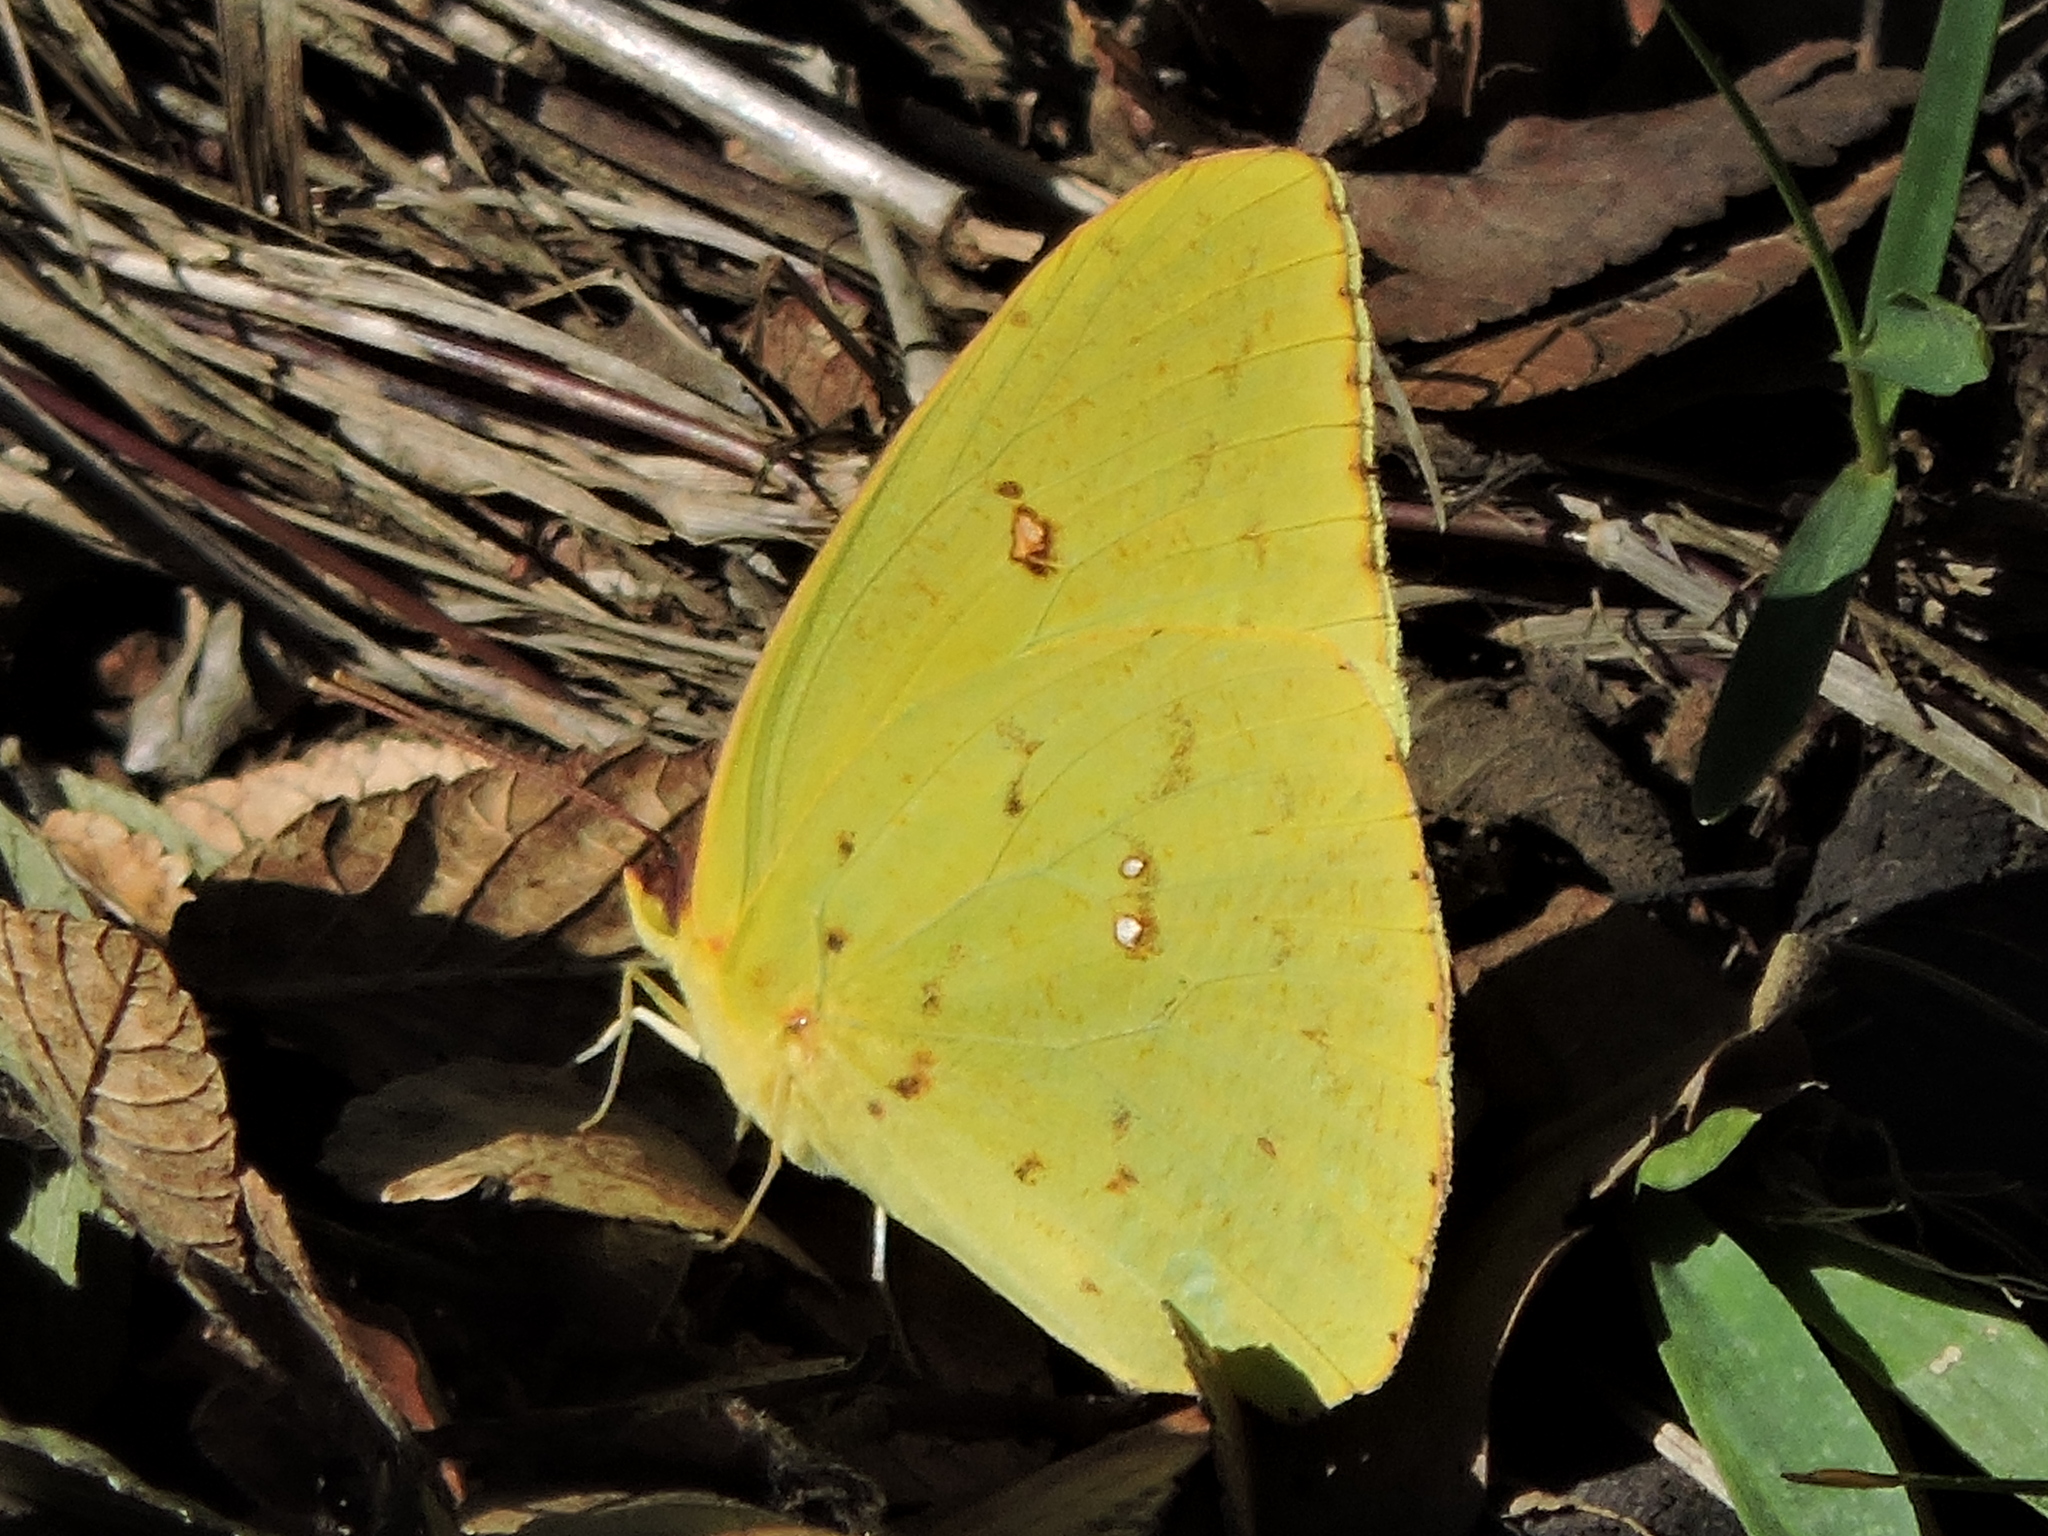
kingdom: Animalia
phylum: Arthropoda
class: Insecta
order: Lepidoptera
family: Pieridae
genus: Phoebis
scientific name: Phoebis sennae
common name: Cloudless sulphur
